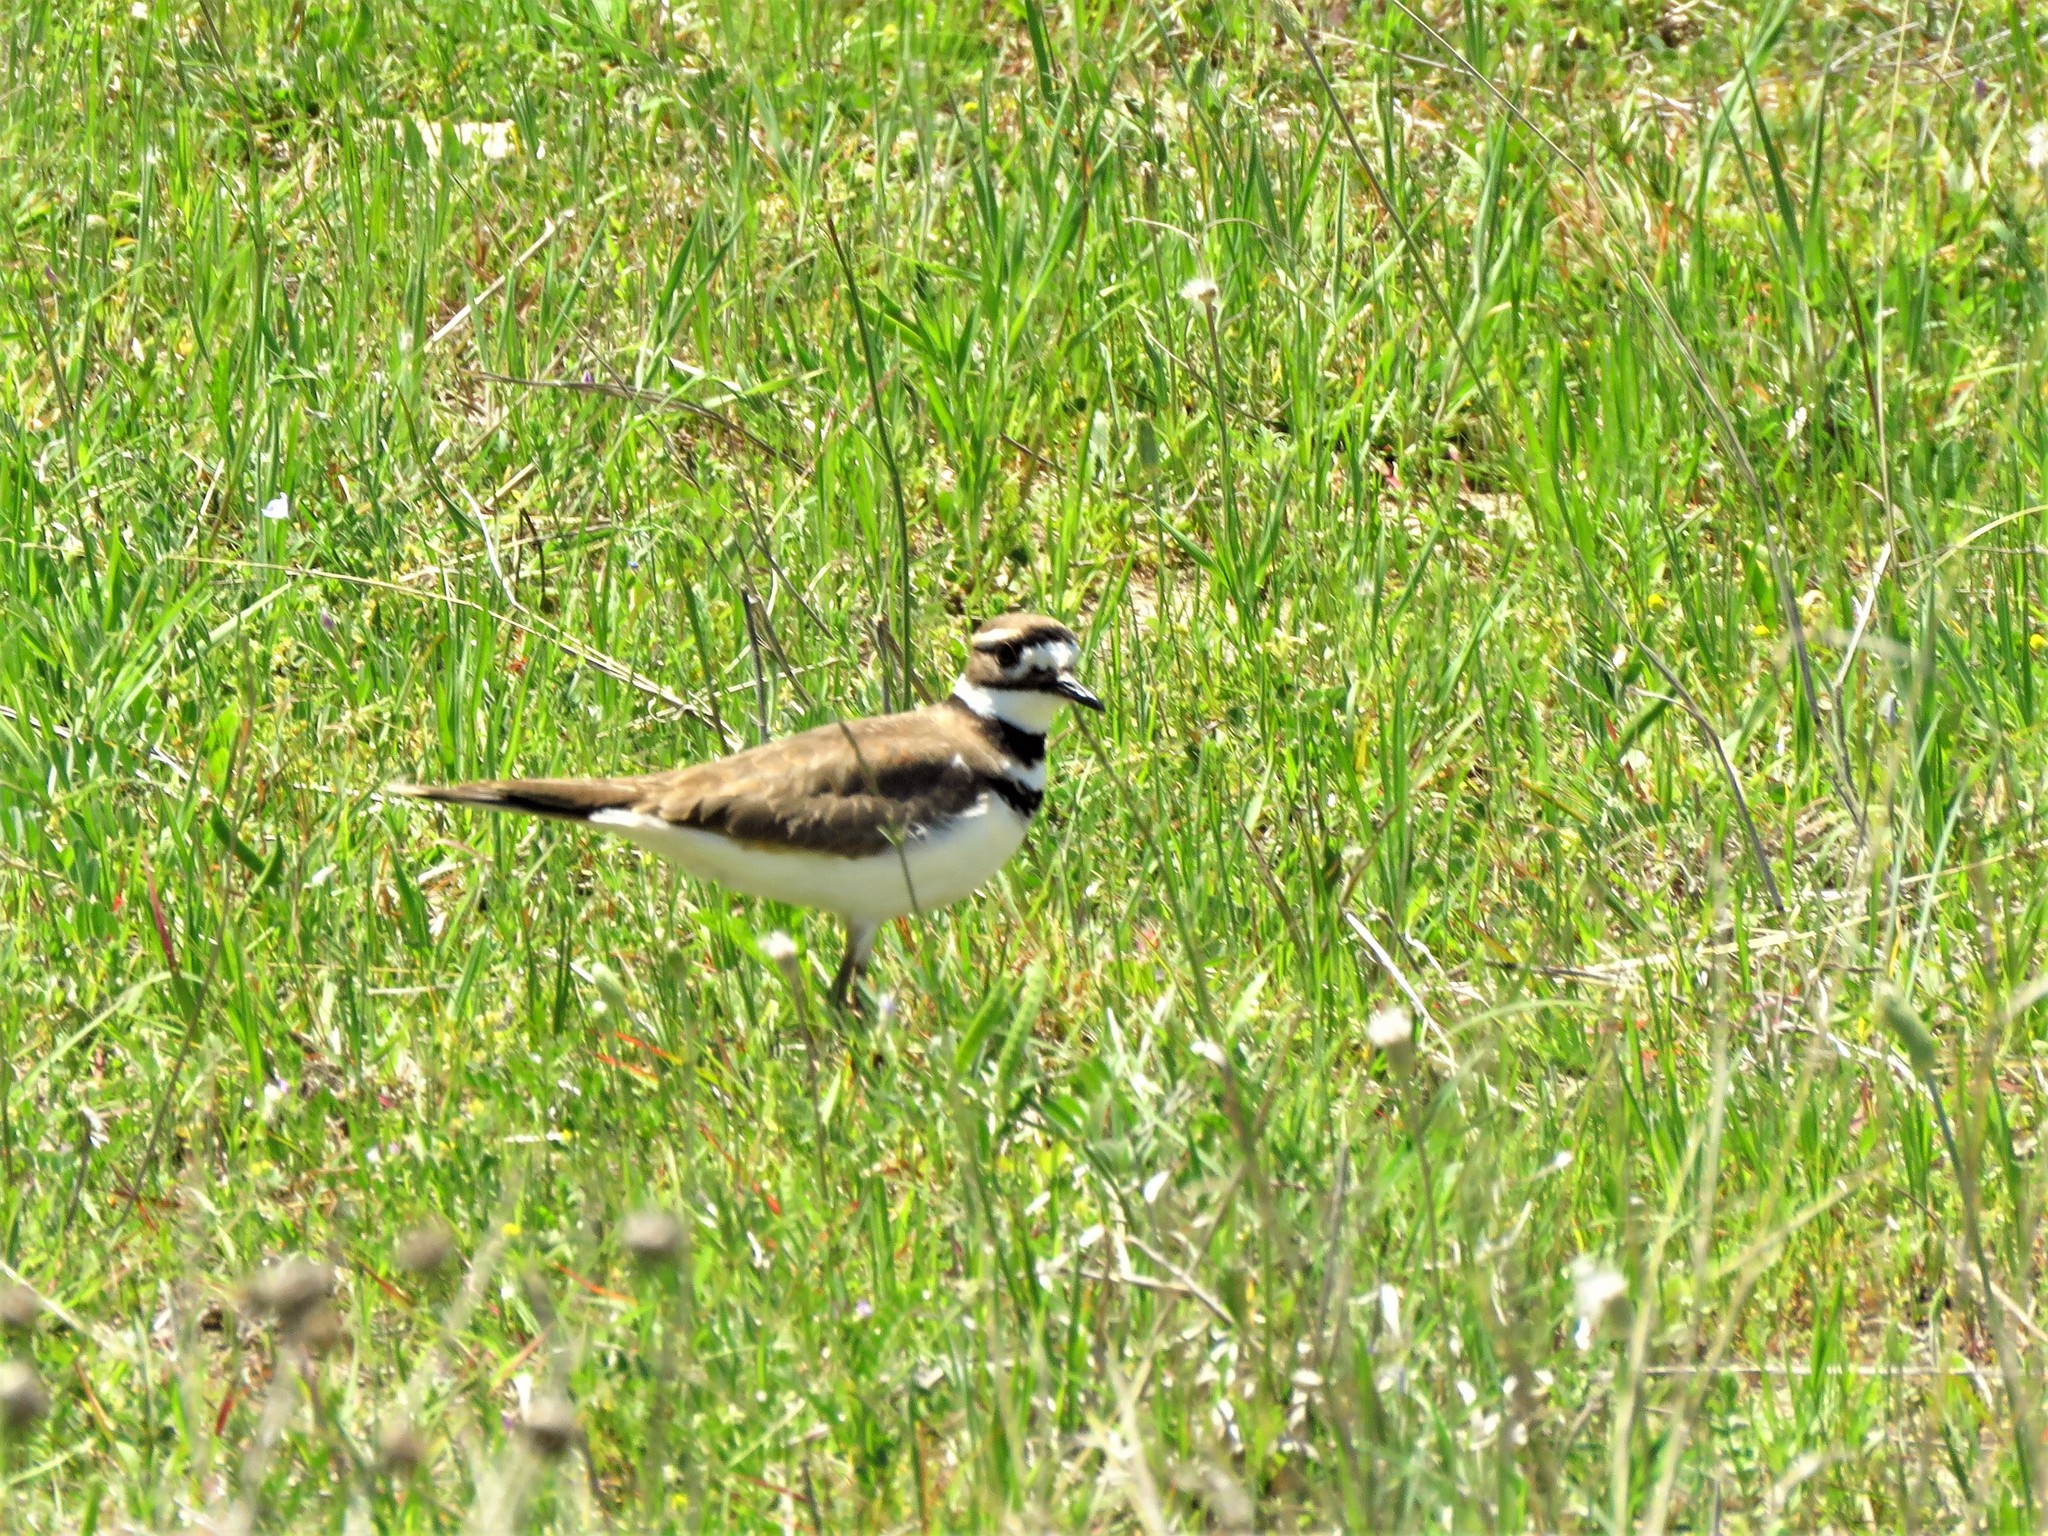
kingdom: Animalia
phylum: Chordata
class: Aves
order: Charadriiformes
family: Charadriidae
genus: Charadrius
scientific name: Charadrius vociferus
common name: Killdeer
